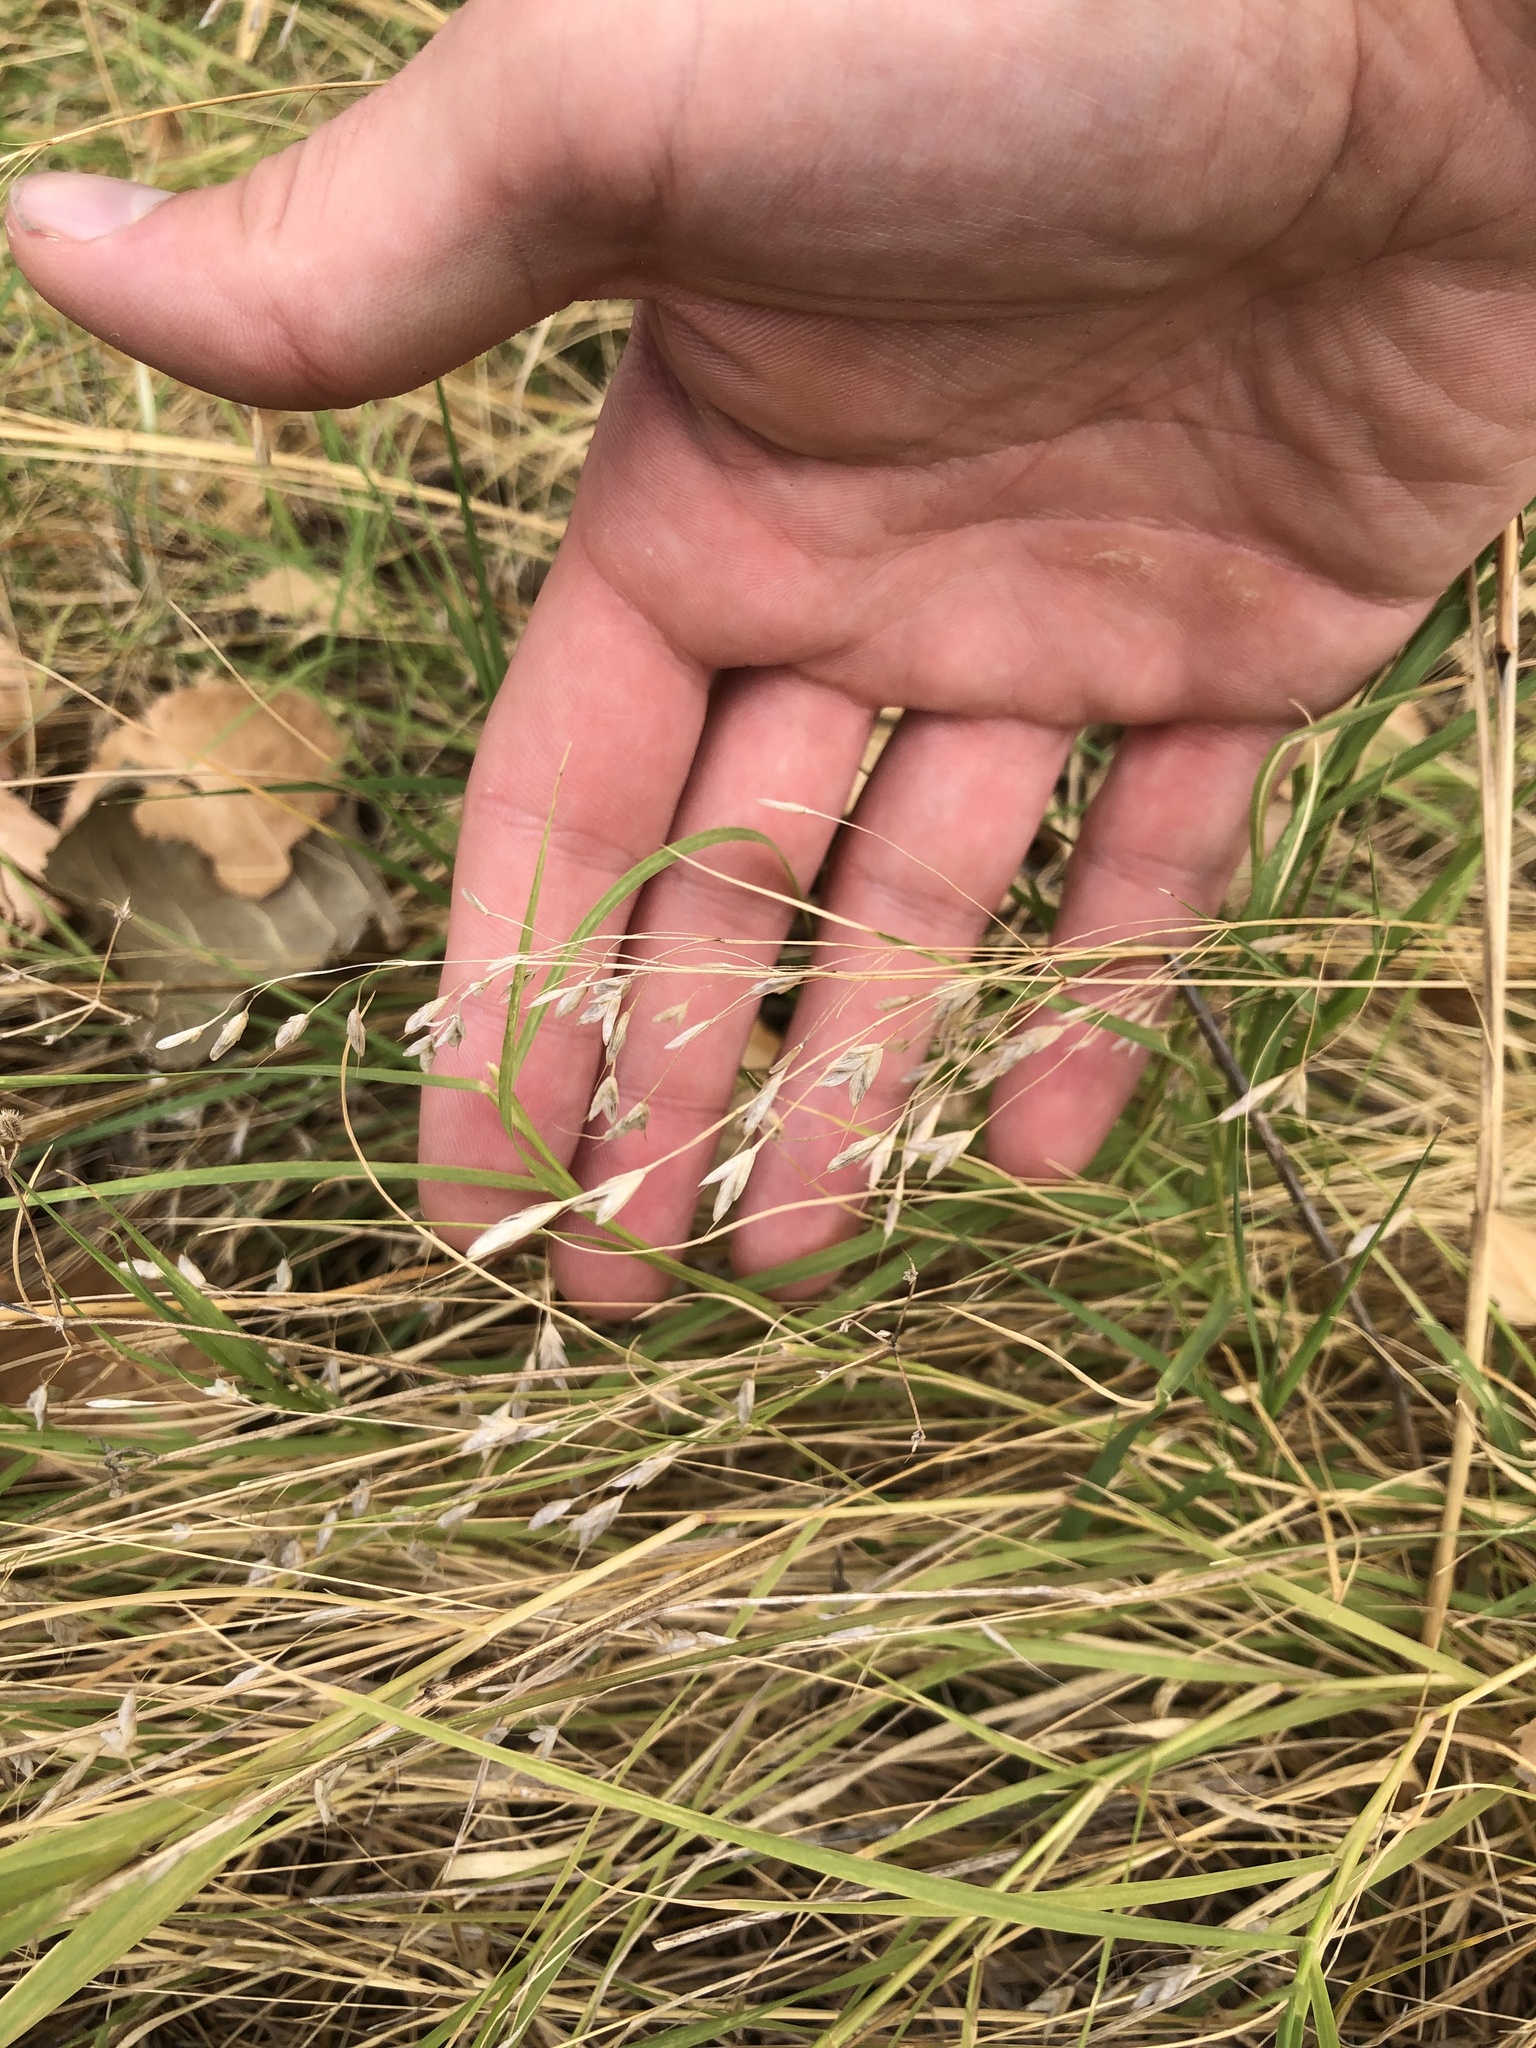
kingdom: Plantae
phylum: Tracheophyta
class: Liliopsida
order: Poales
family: Poaceae
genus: Bromus
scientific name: Bromus japonicus
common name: Japanese brome
